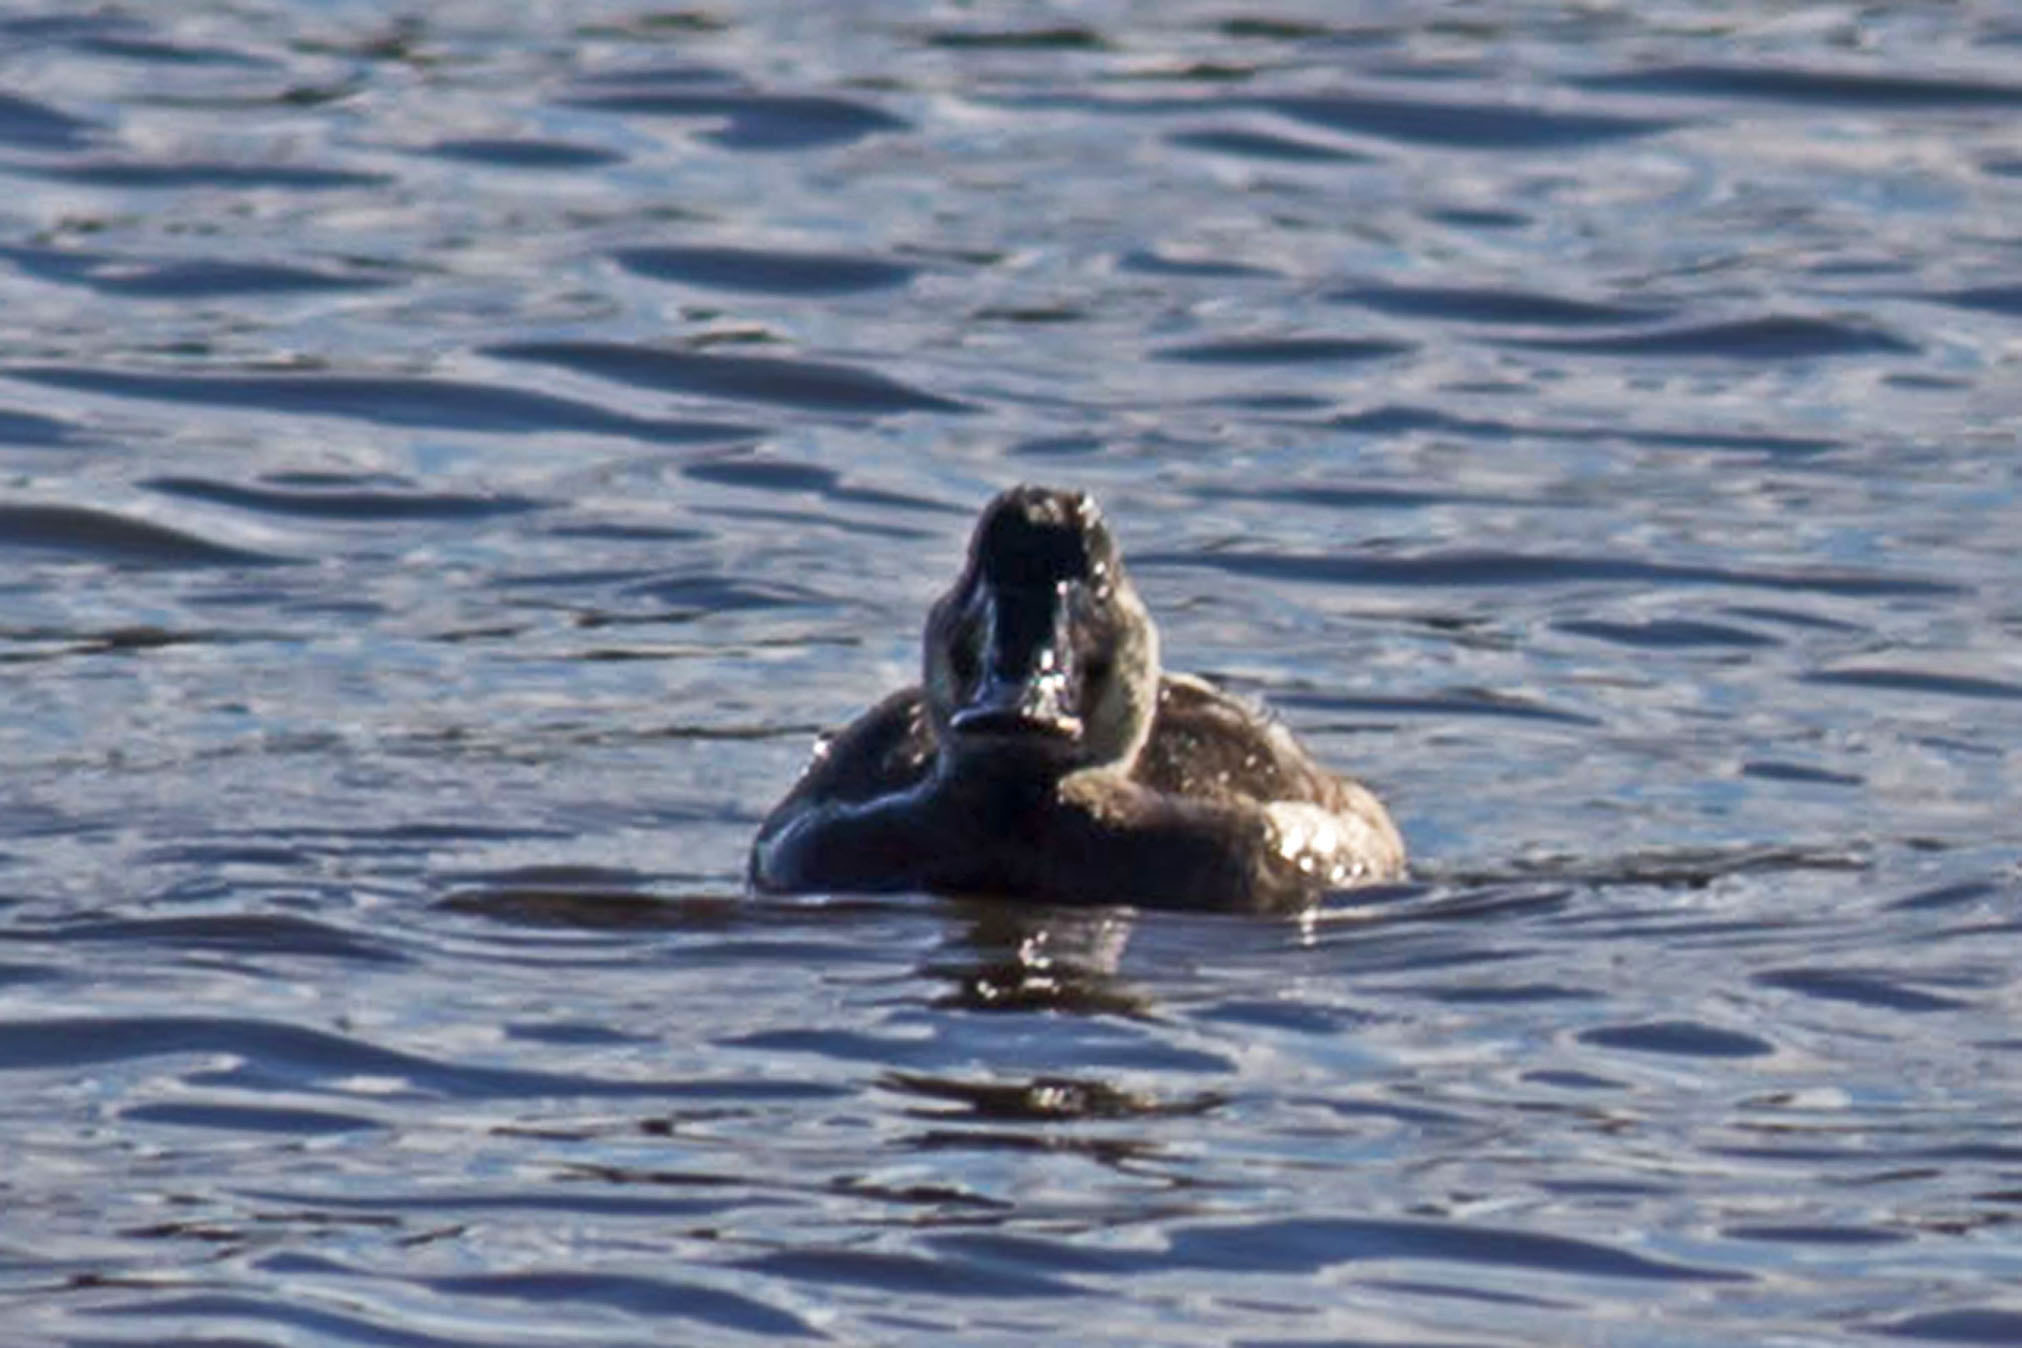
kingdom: Animalia
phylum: Chordata
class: Aves
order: Anseriformes
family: Anatidae
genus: Oxyura
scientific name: Oxyura jamaicensis
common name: Ruddy duck
